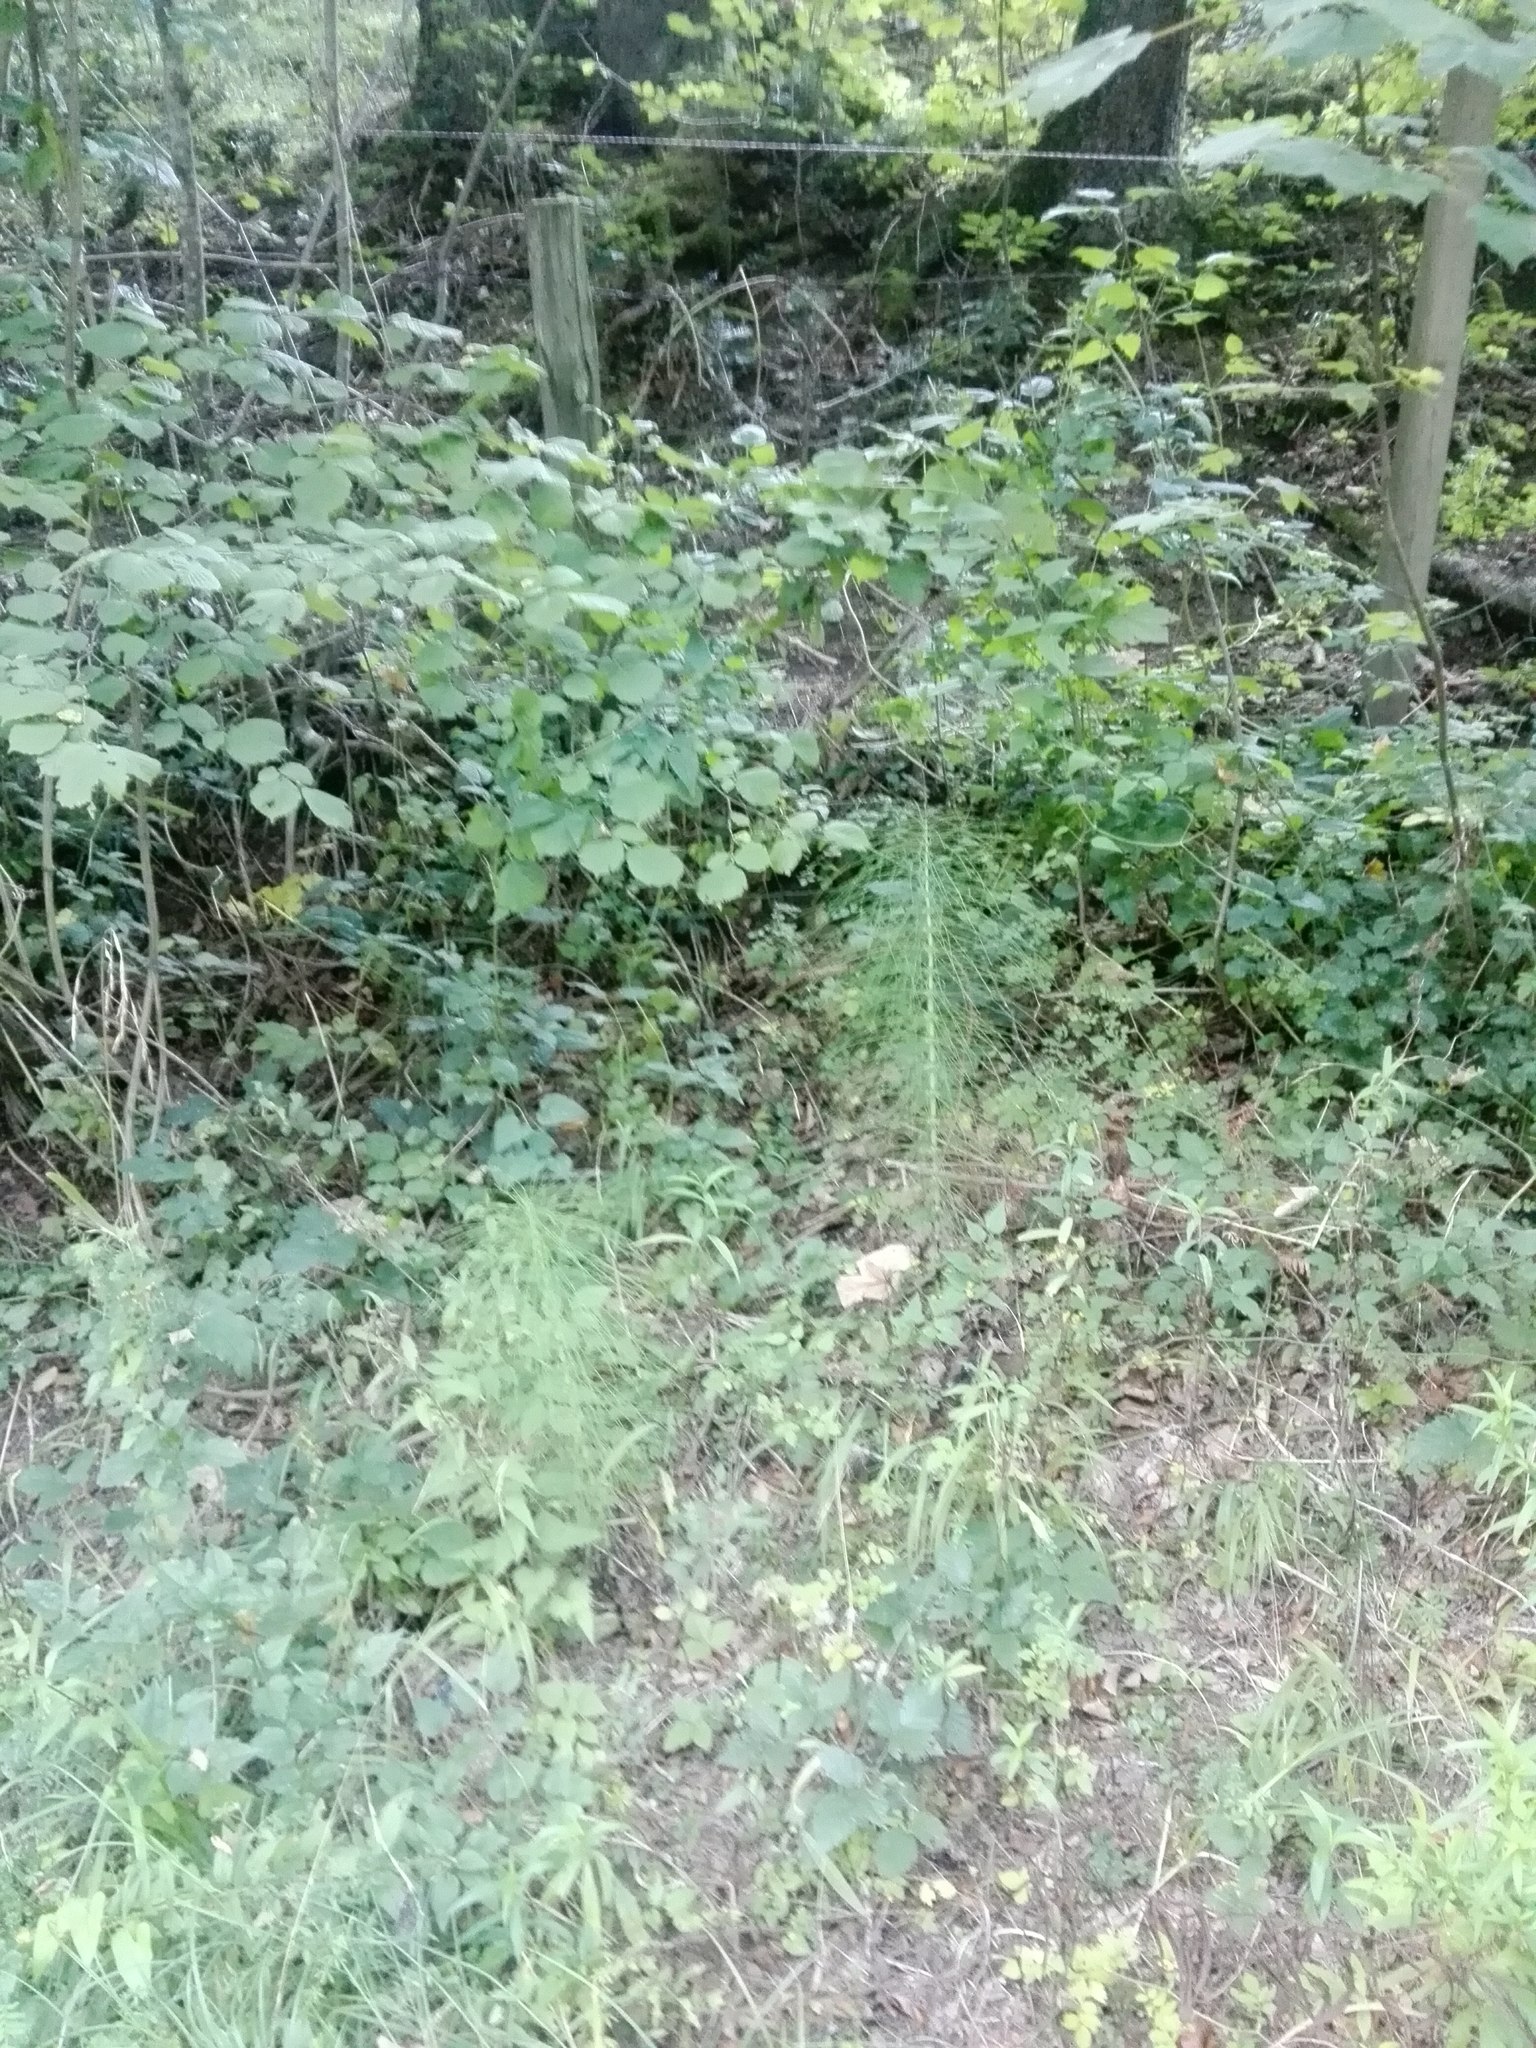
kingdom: Plantae
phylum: Tracheophyta
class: Polypodiopsida
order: Equisetales
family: Equisetaceae
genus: Equisetum
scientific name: Equisetum telmateia
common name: Great horsetail
